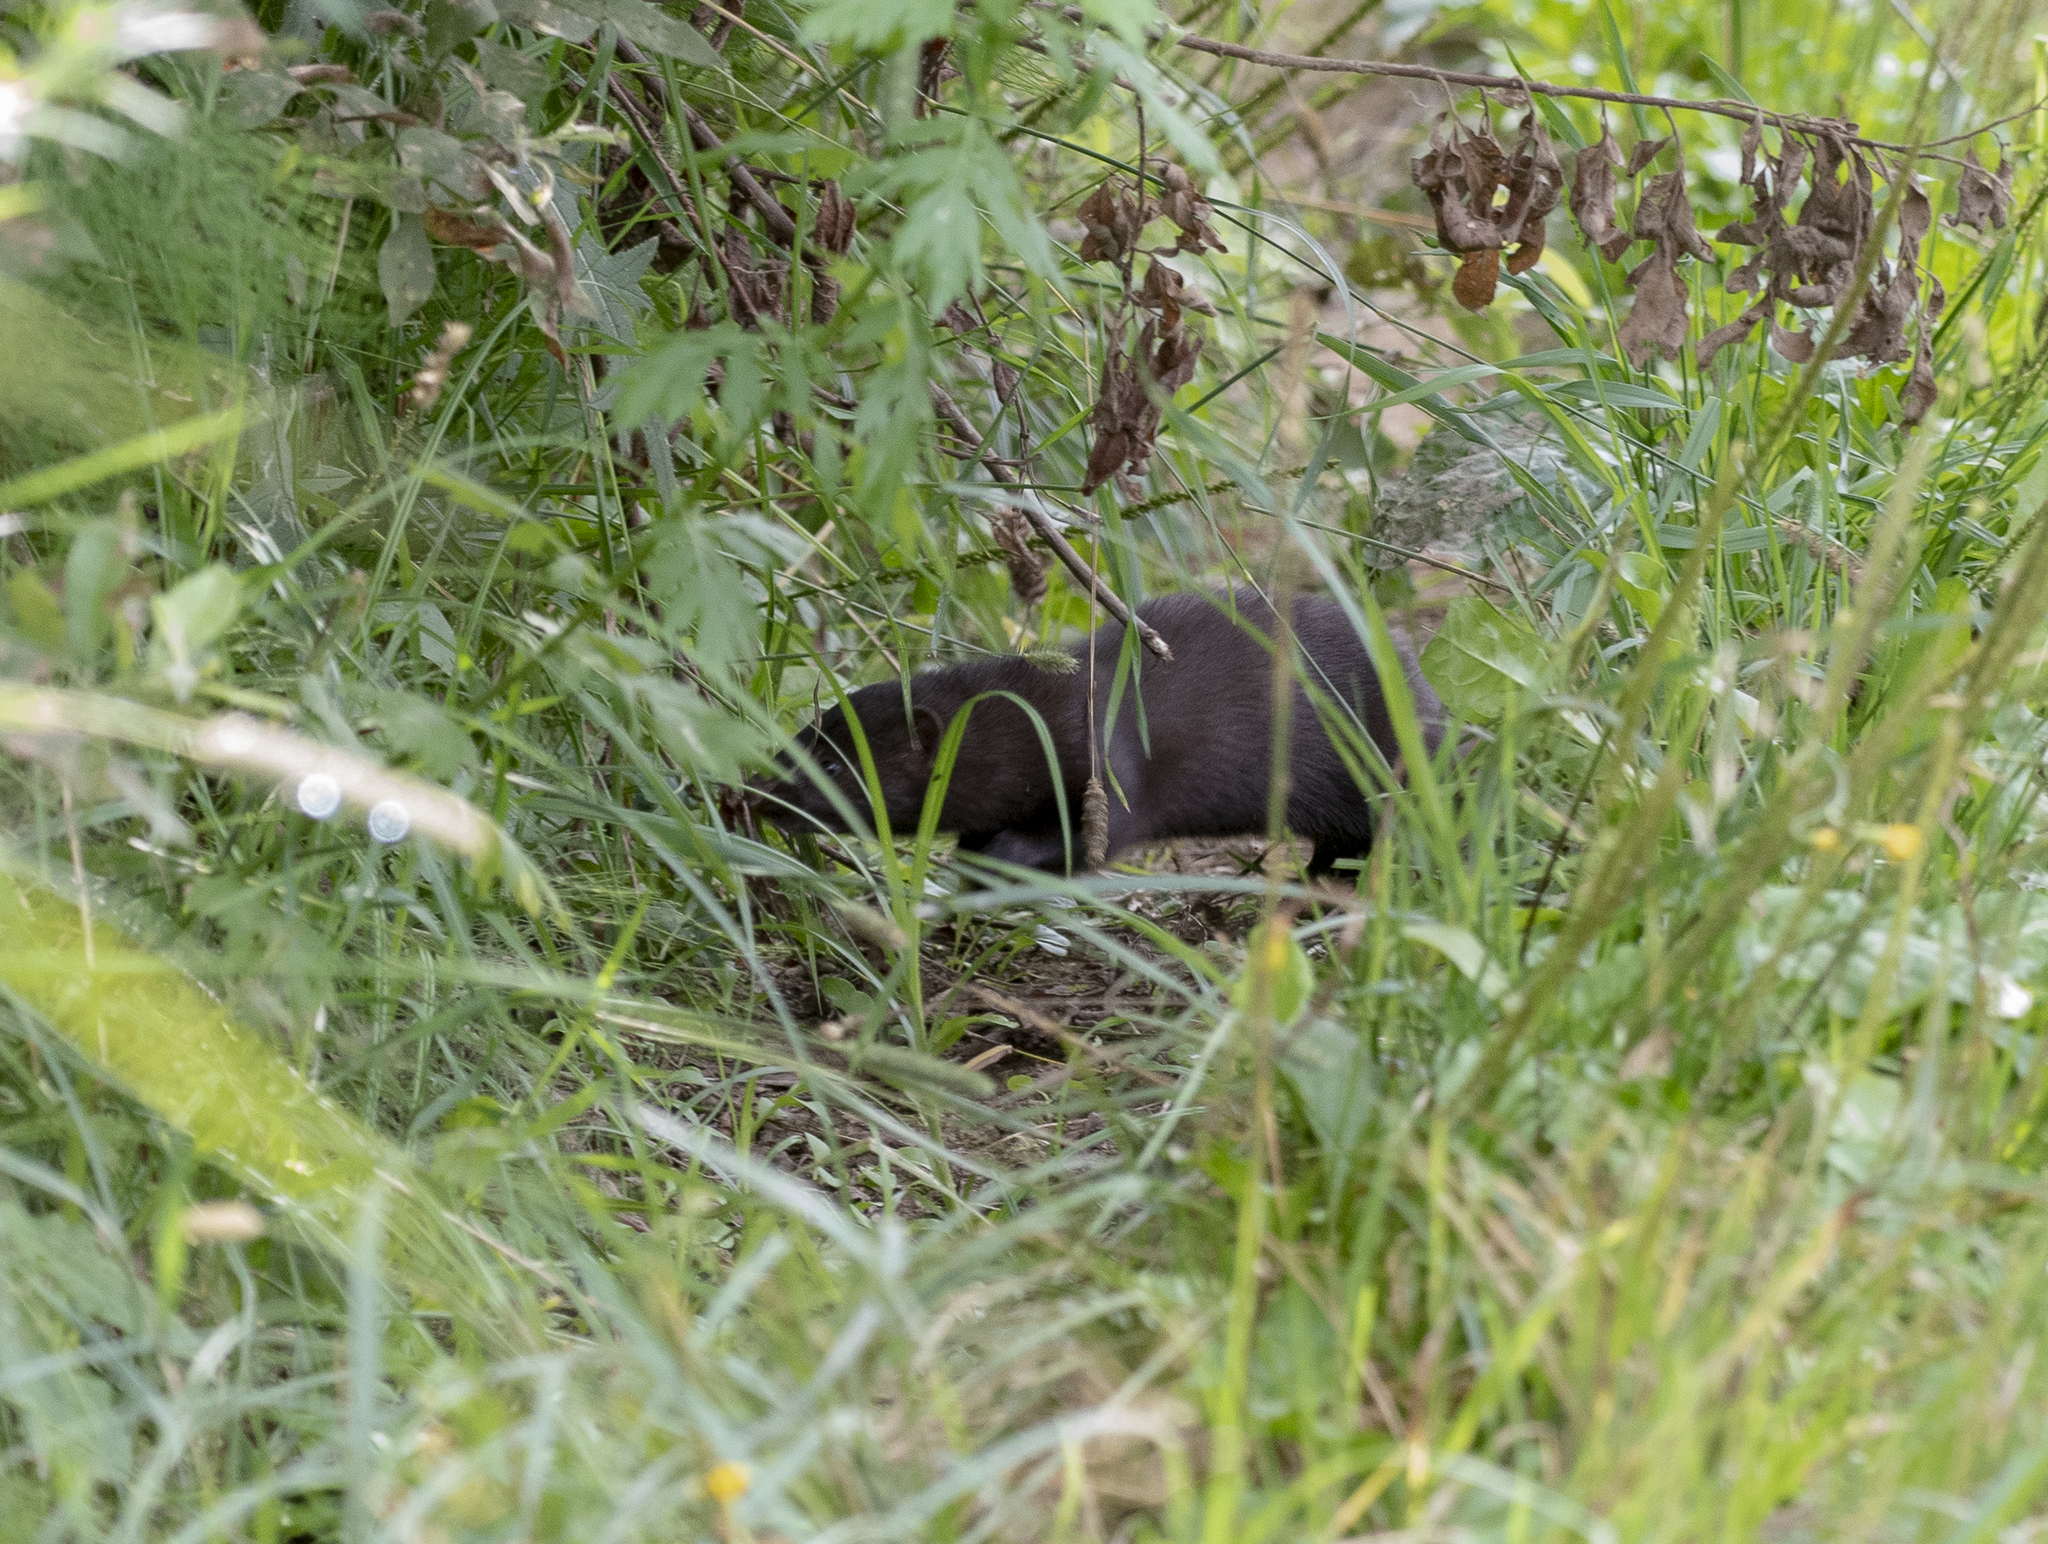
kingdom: Animalia
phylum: Chordata
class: Mammalia
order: Carnivora
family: Mustelidae
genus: Mustela
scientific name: Mustela
